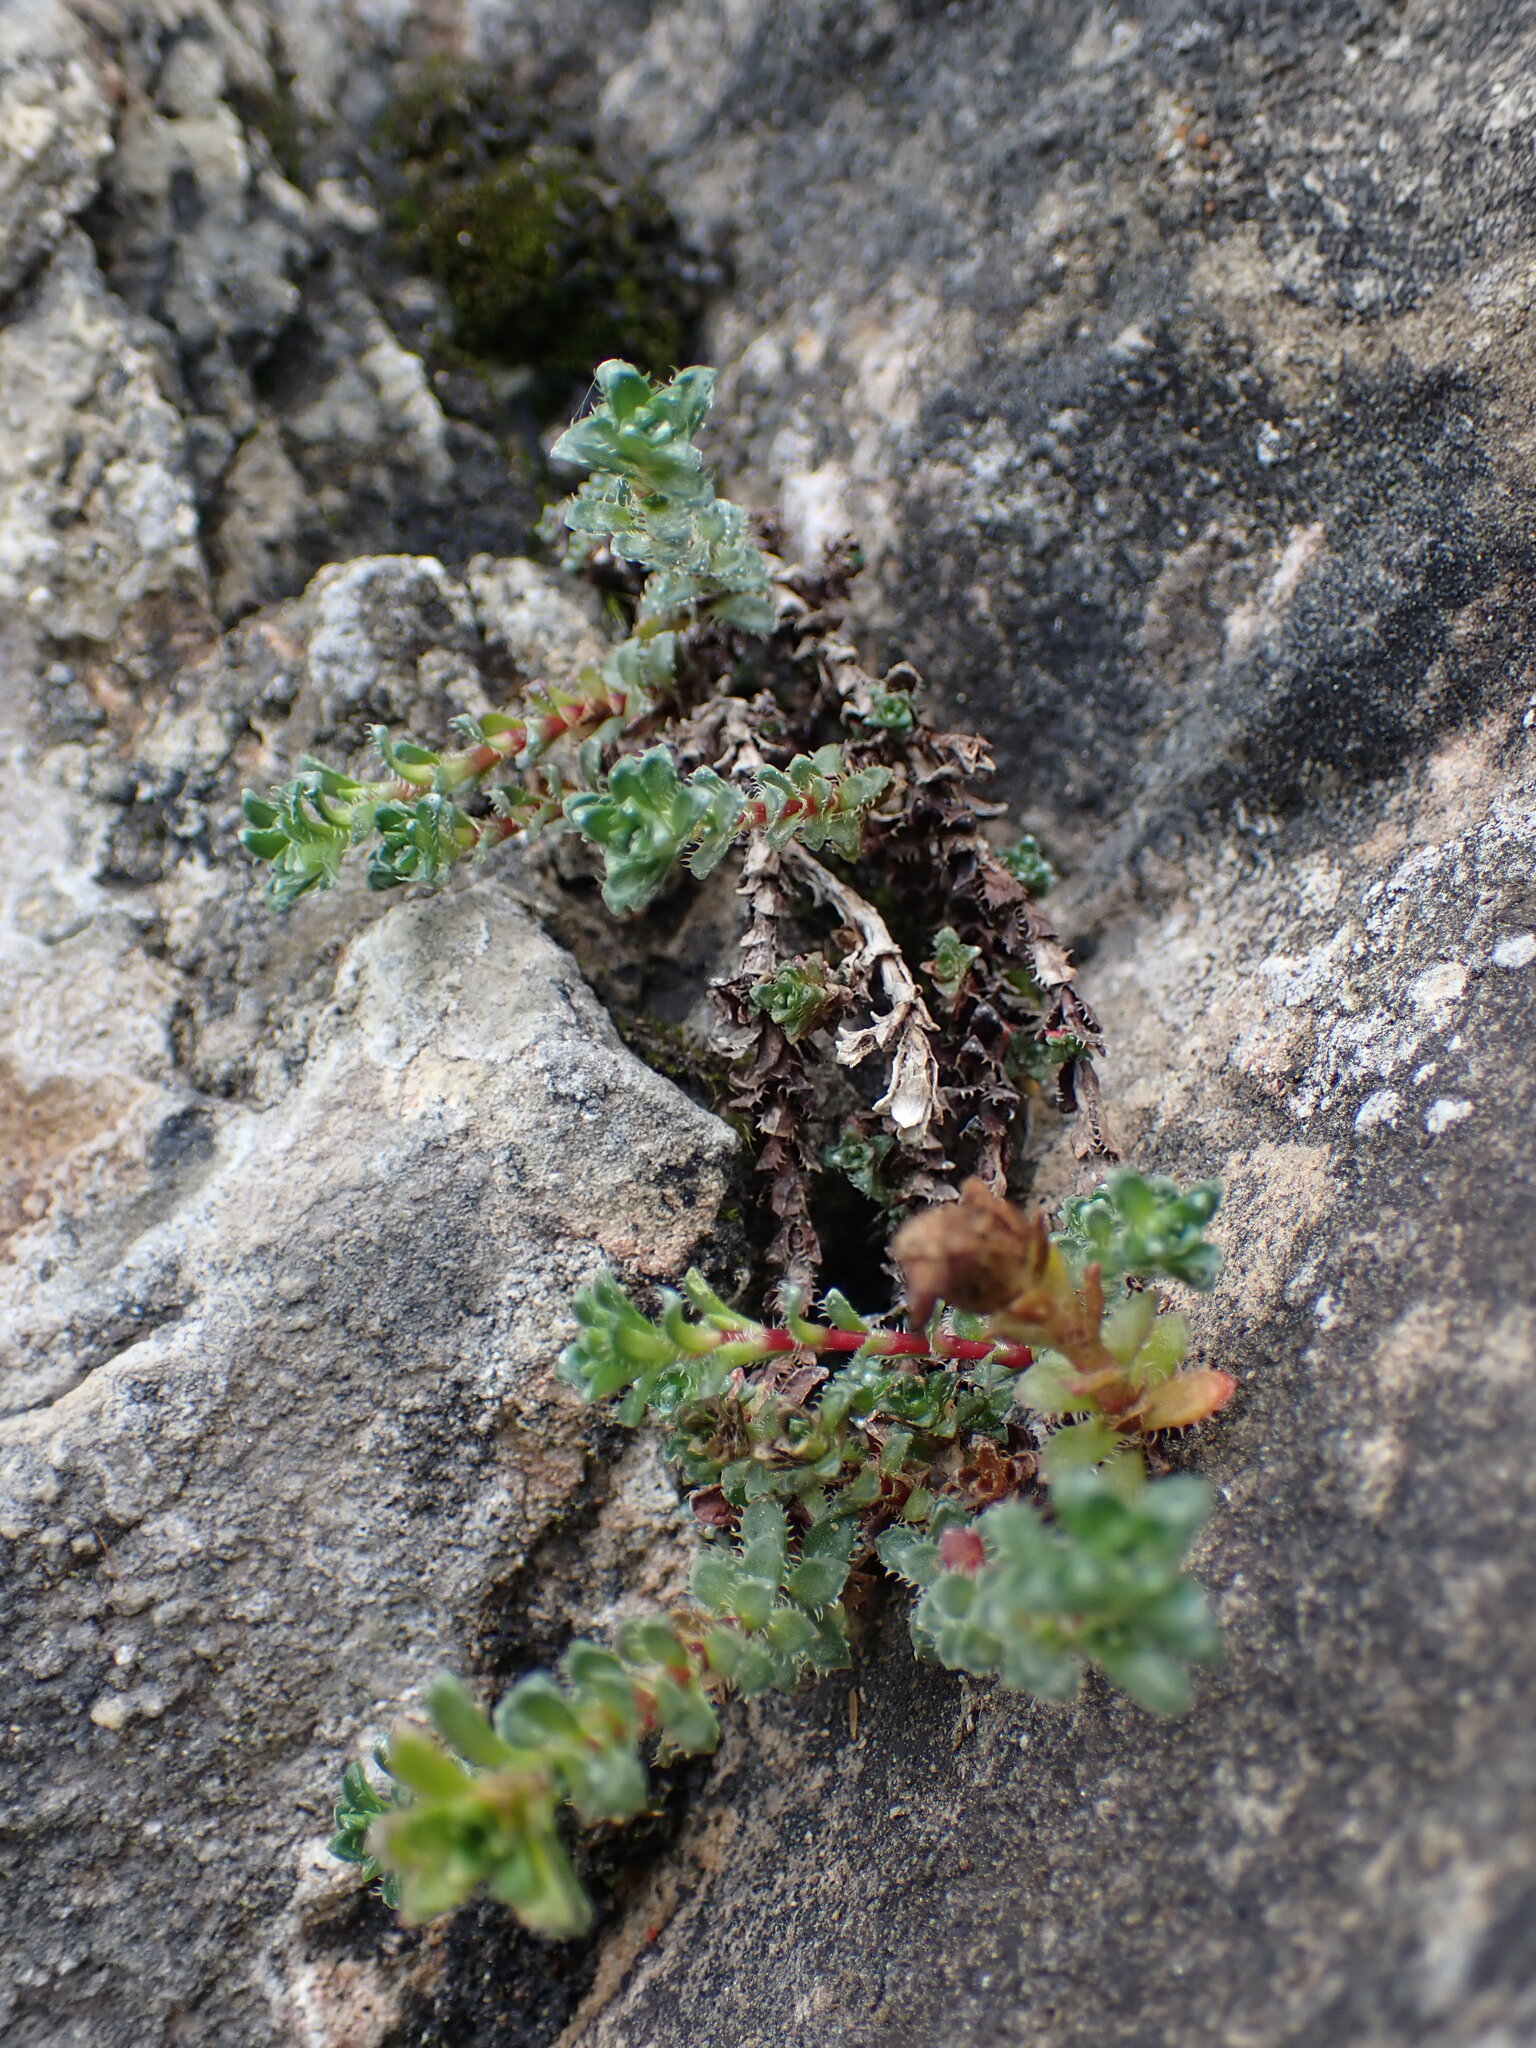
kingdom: Plantae
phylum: Tracheophyta
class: Magnoliopsida
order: Saxifragales
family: Saxifragaceae
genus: Saxifraga
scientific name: Saxifraga oppositifolia
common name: Purple saxifrage
